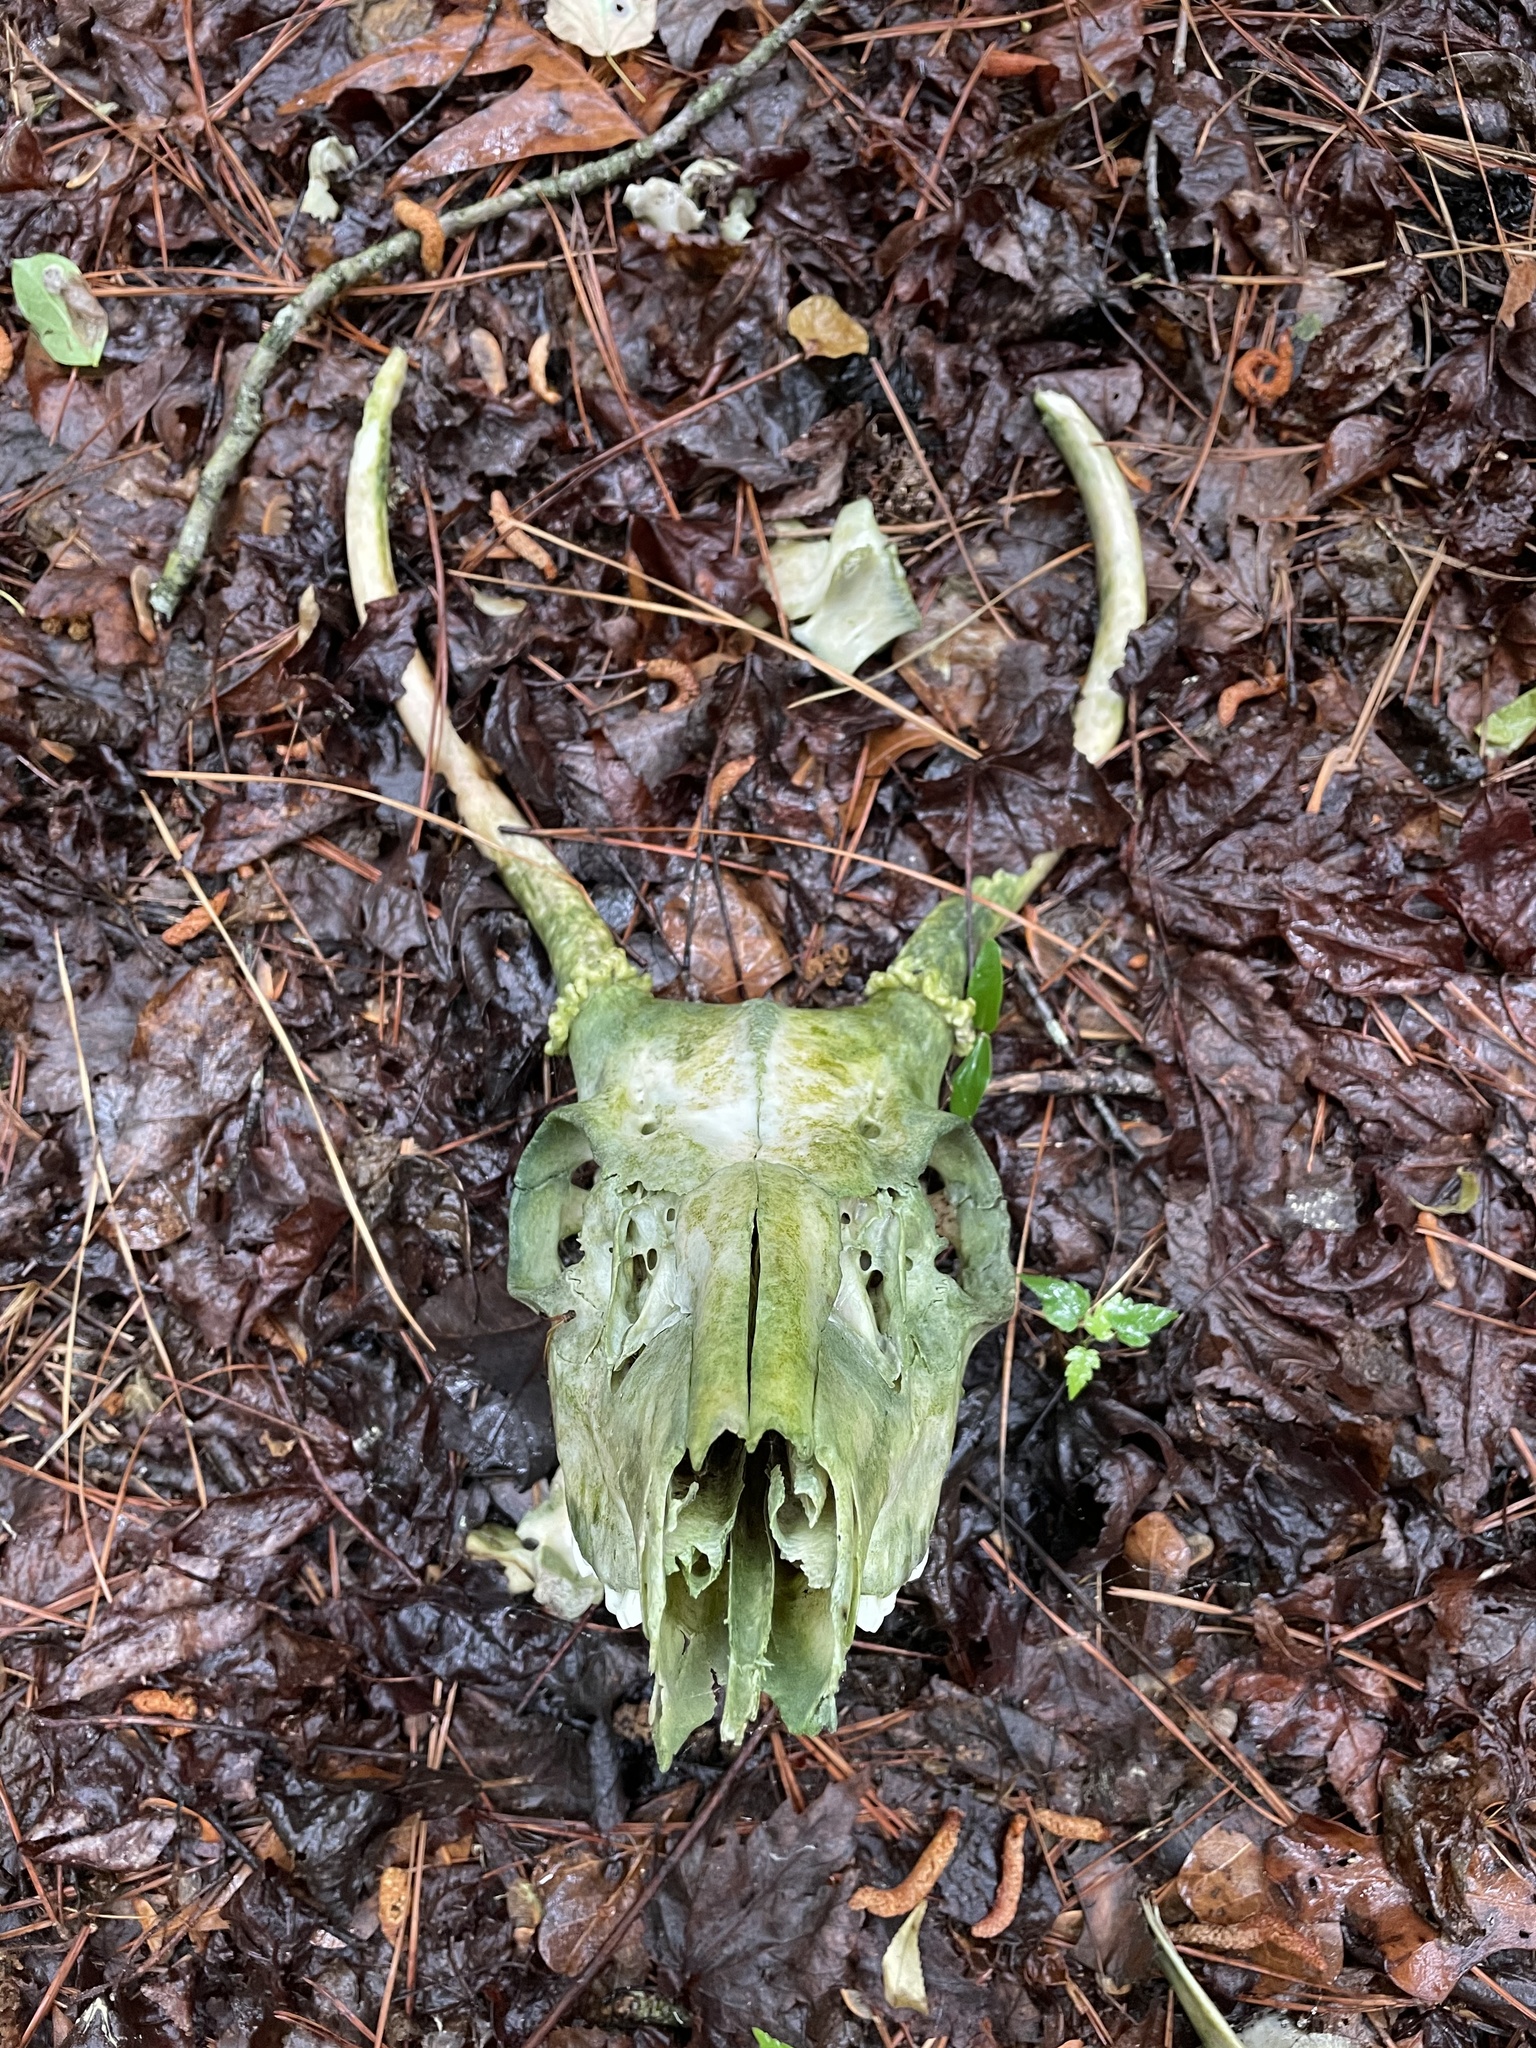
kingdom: Animalia
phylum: Chordata
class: Mammalia
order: Artiodactyla
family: Cervidae
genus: Odocoileus
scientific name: Odocoileus virginianus
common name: White-tailed deer
